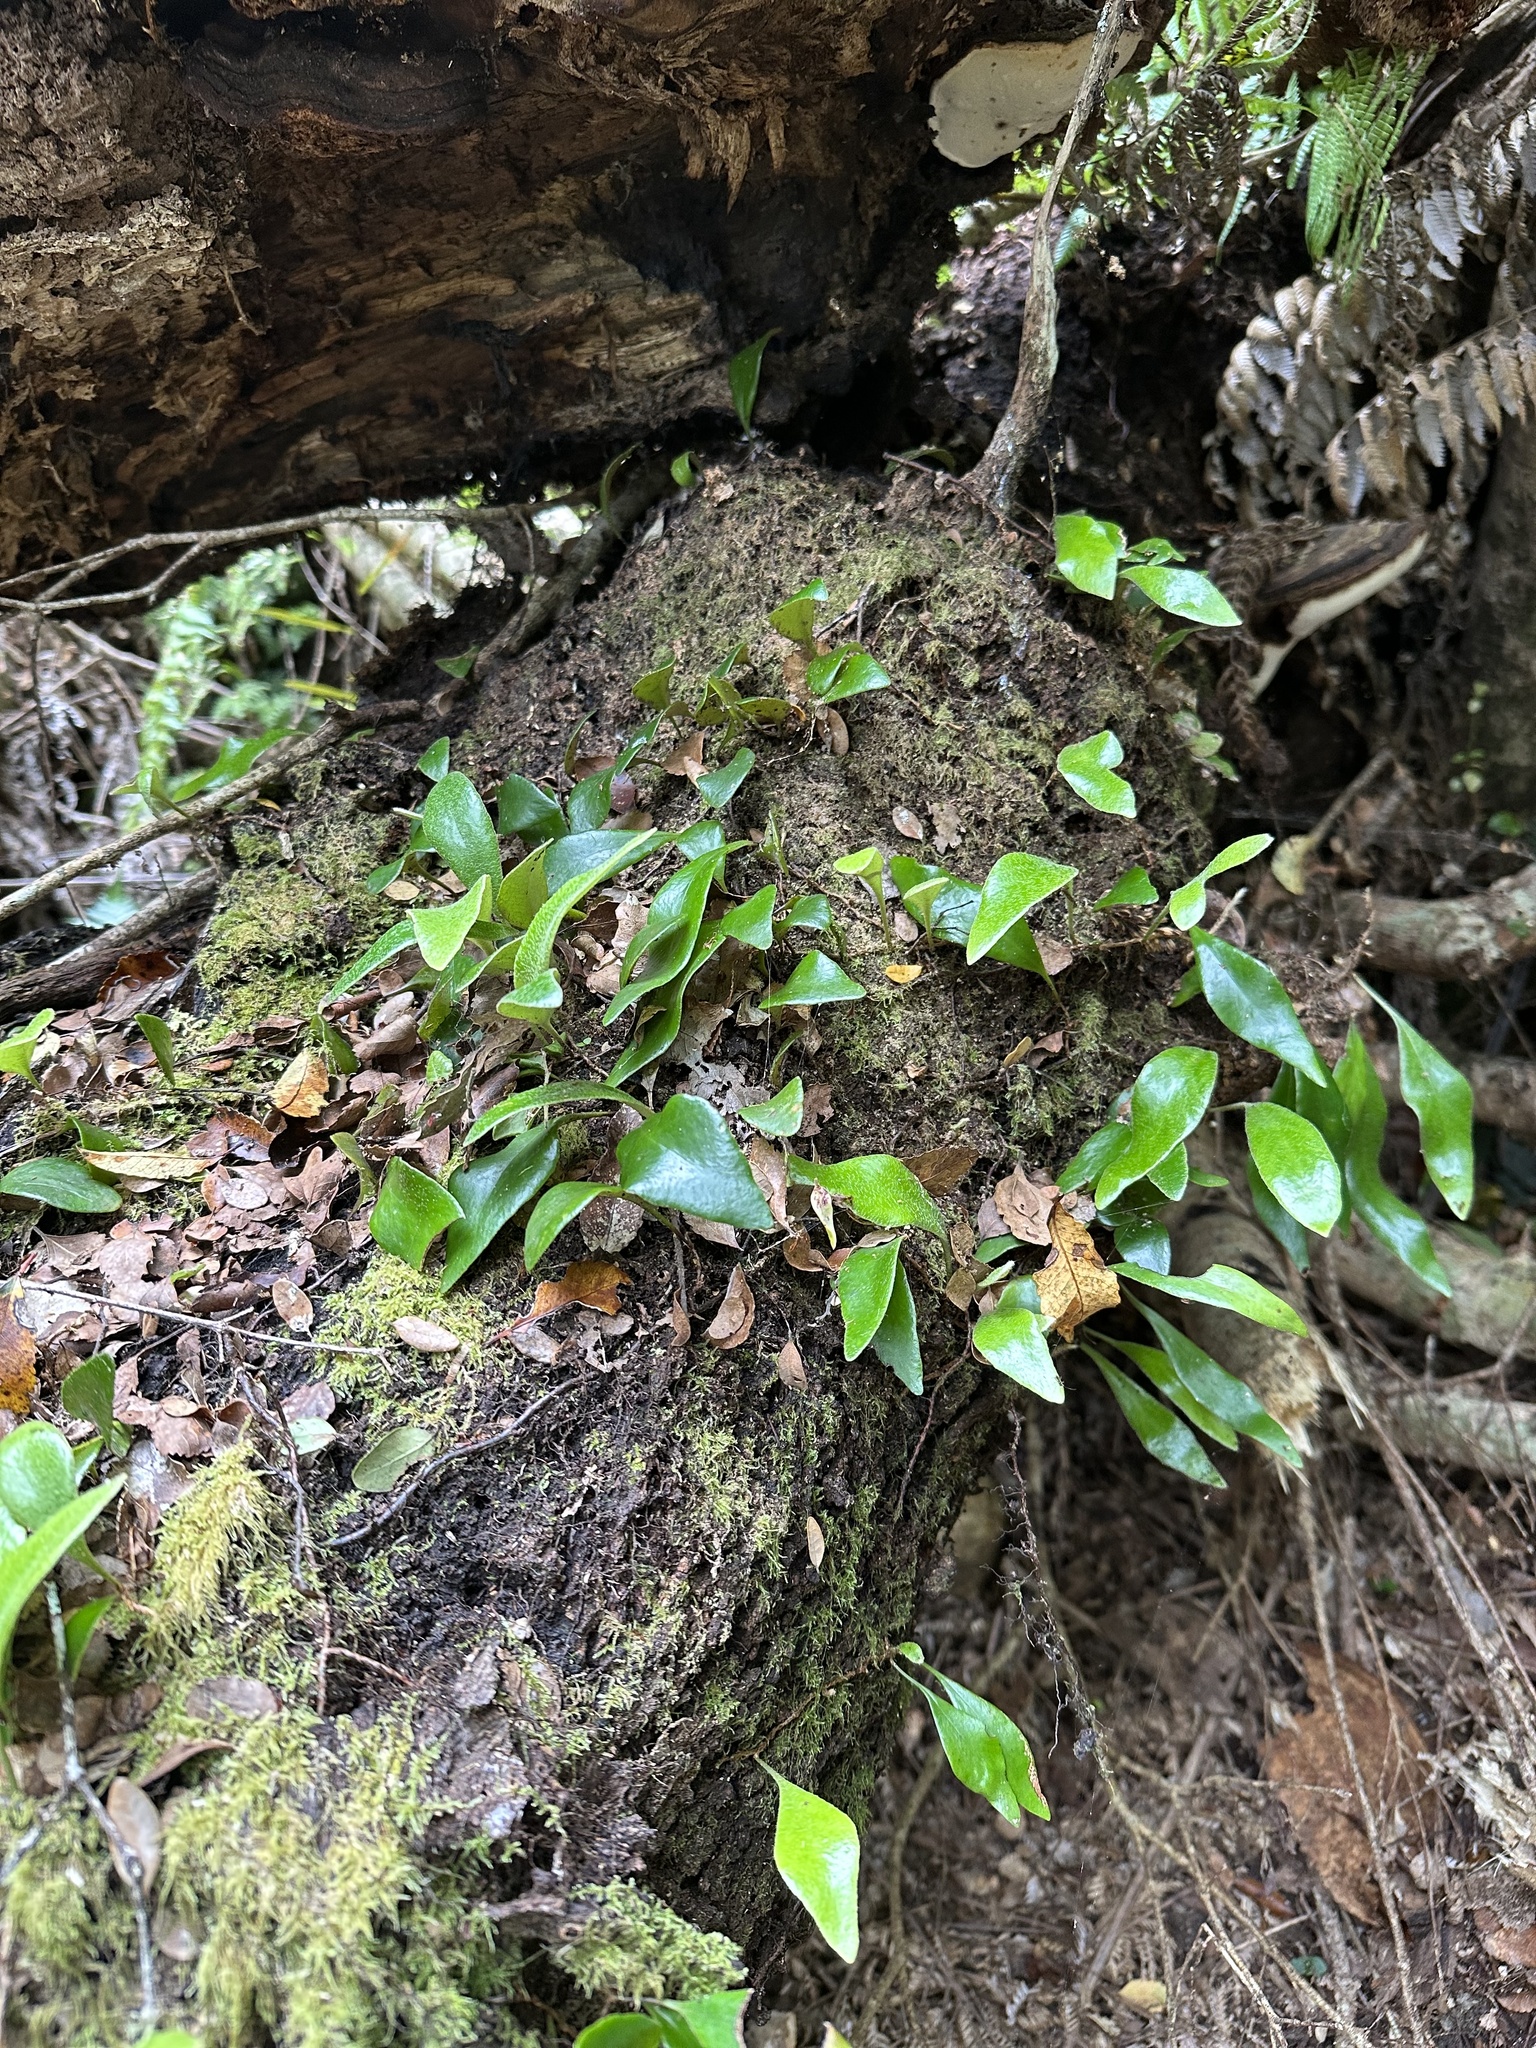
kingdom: Plantae
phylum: Tracheophyta
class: Polypodiopsida
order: Polypodiales
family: Polypodiaceae
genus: Pyrrosia
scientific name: Pyrrosia eleagnifolia
